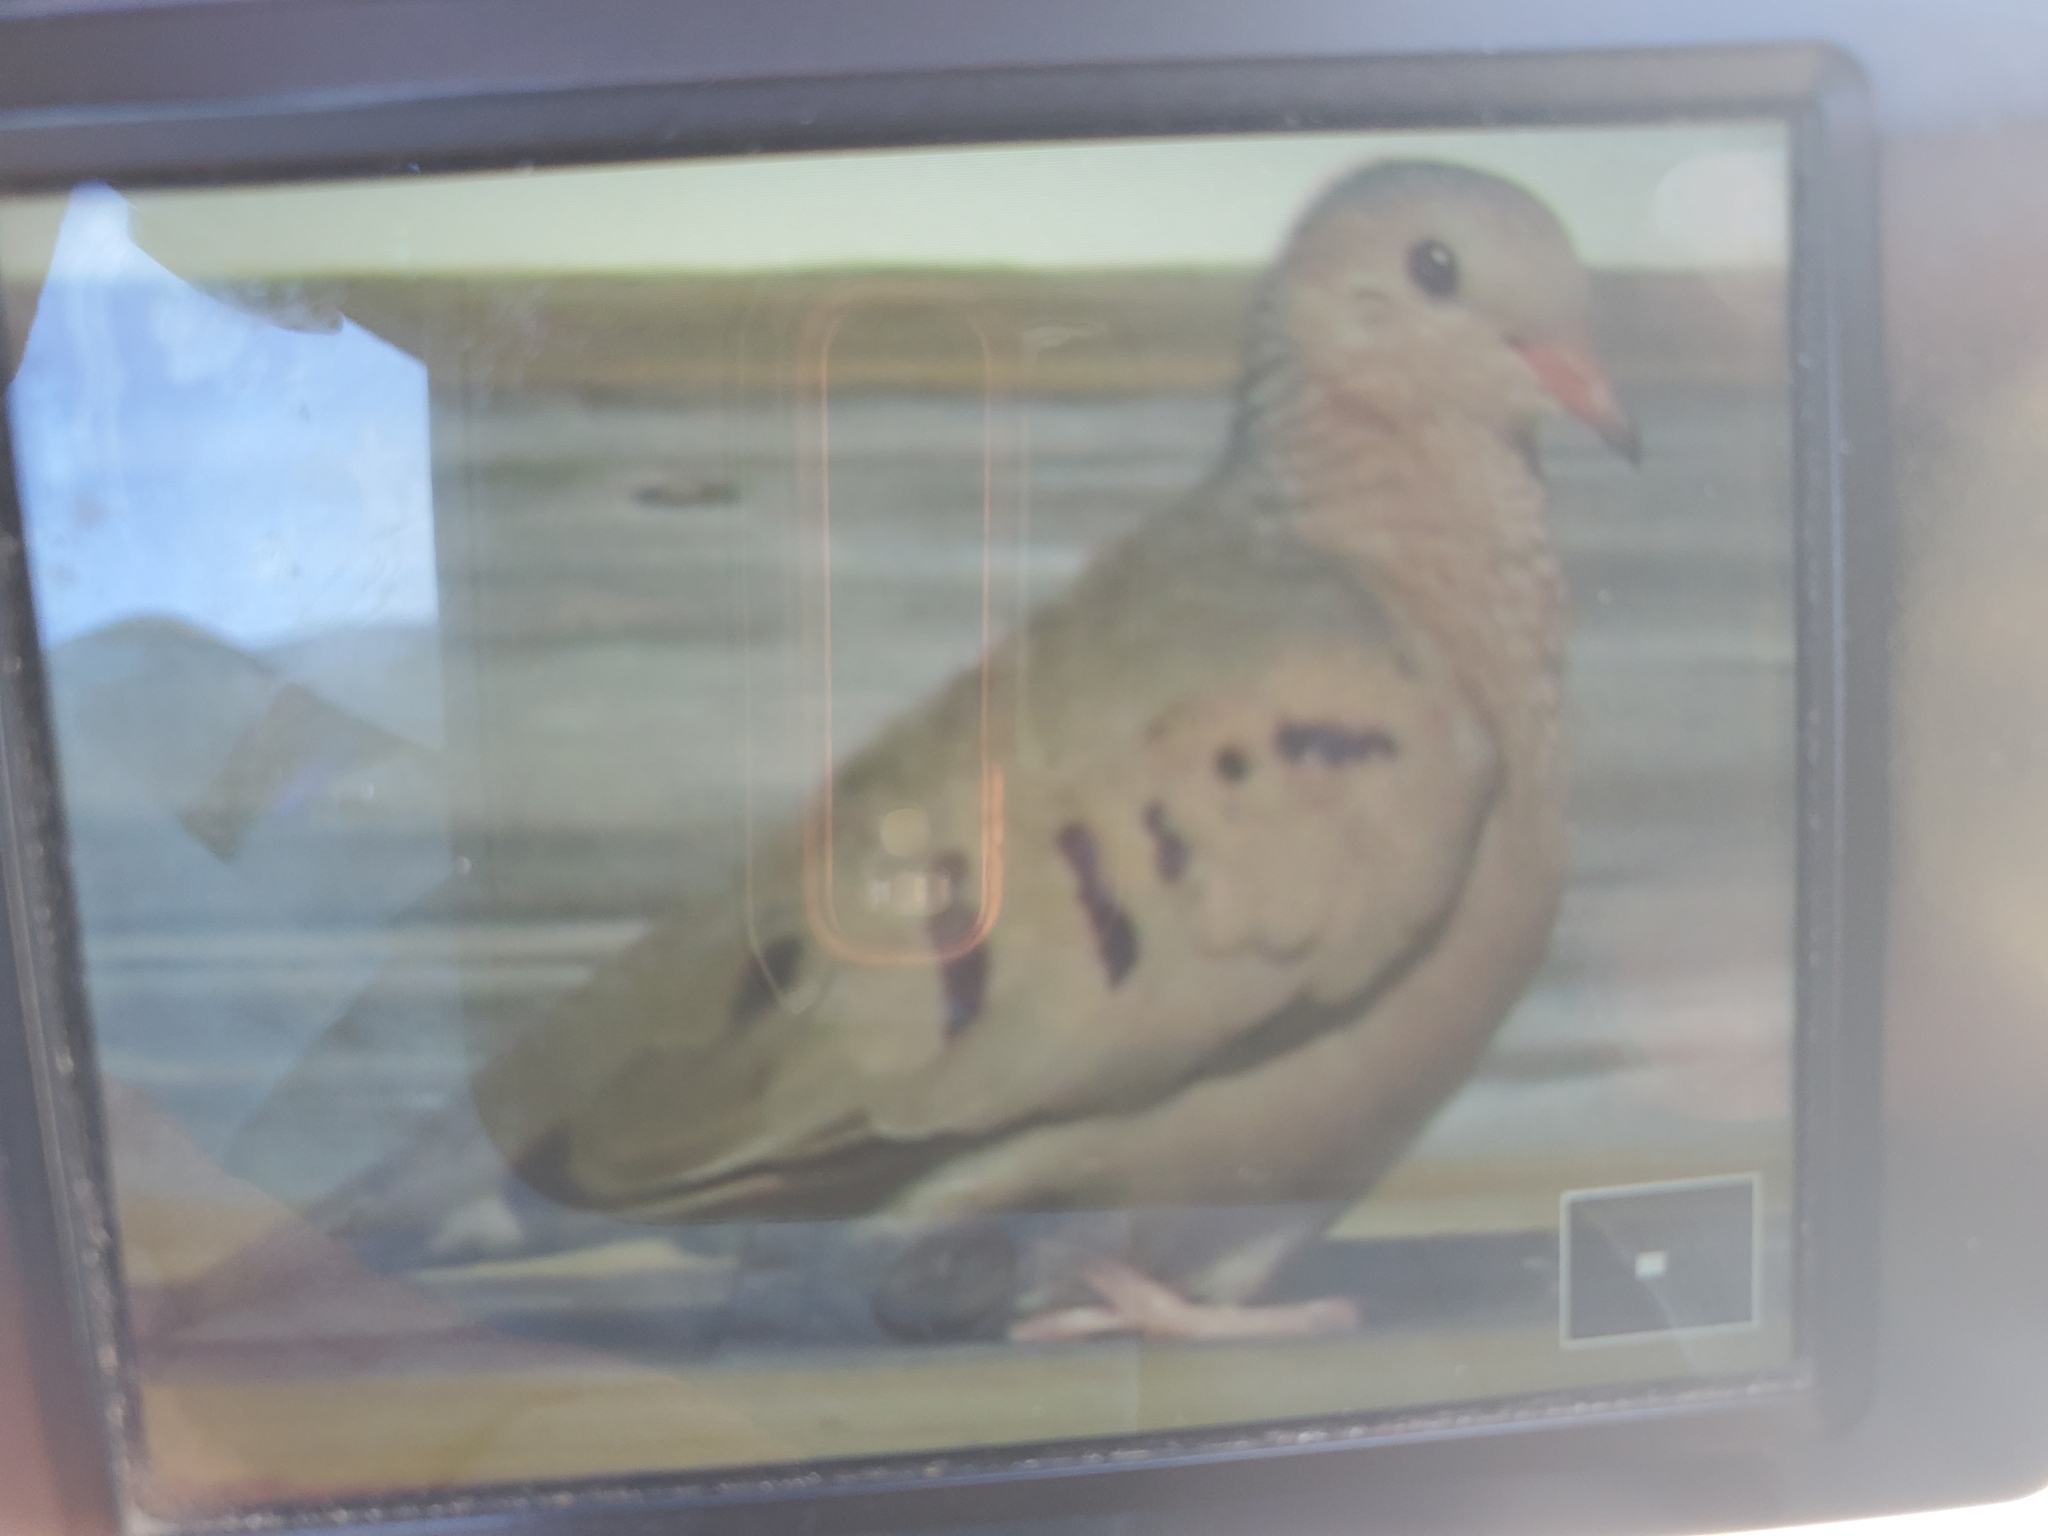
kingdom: Animalia
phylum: Chordata
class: Aves
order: Columbiformes
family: Columbidae
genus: Columbina
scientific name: Columbina passerina
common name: Common ground-dove
